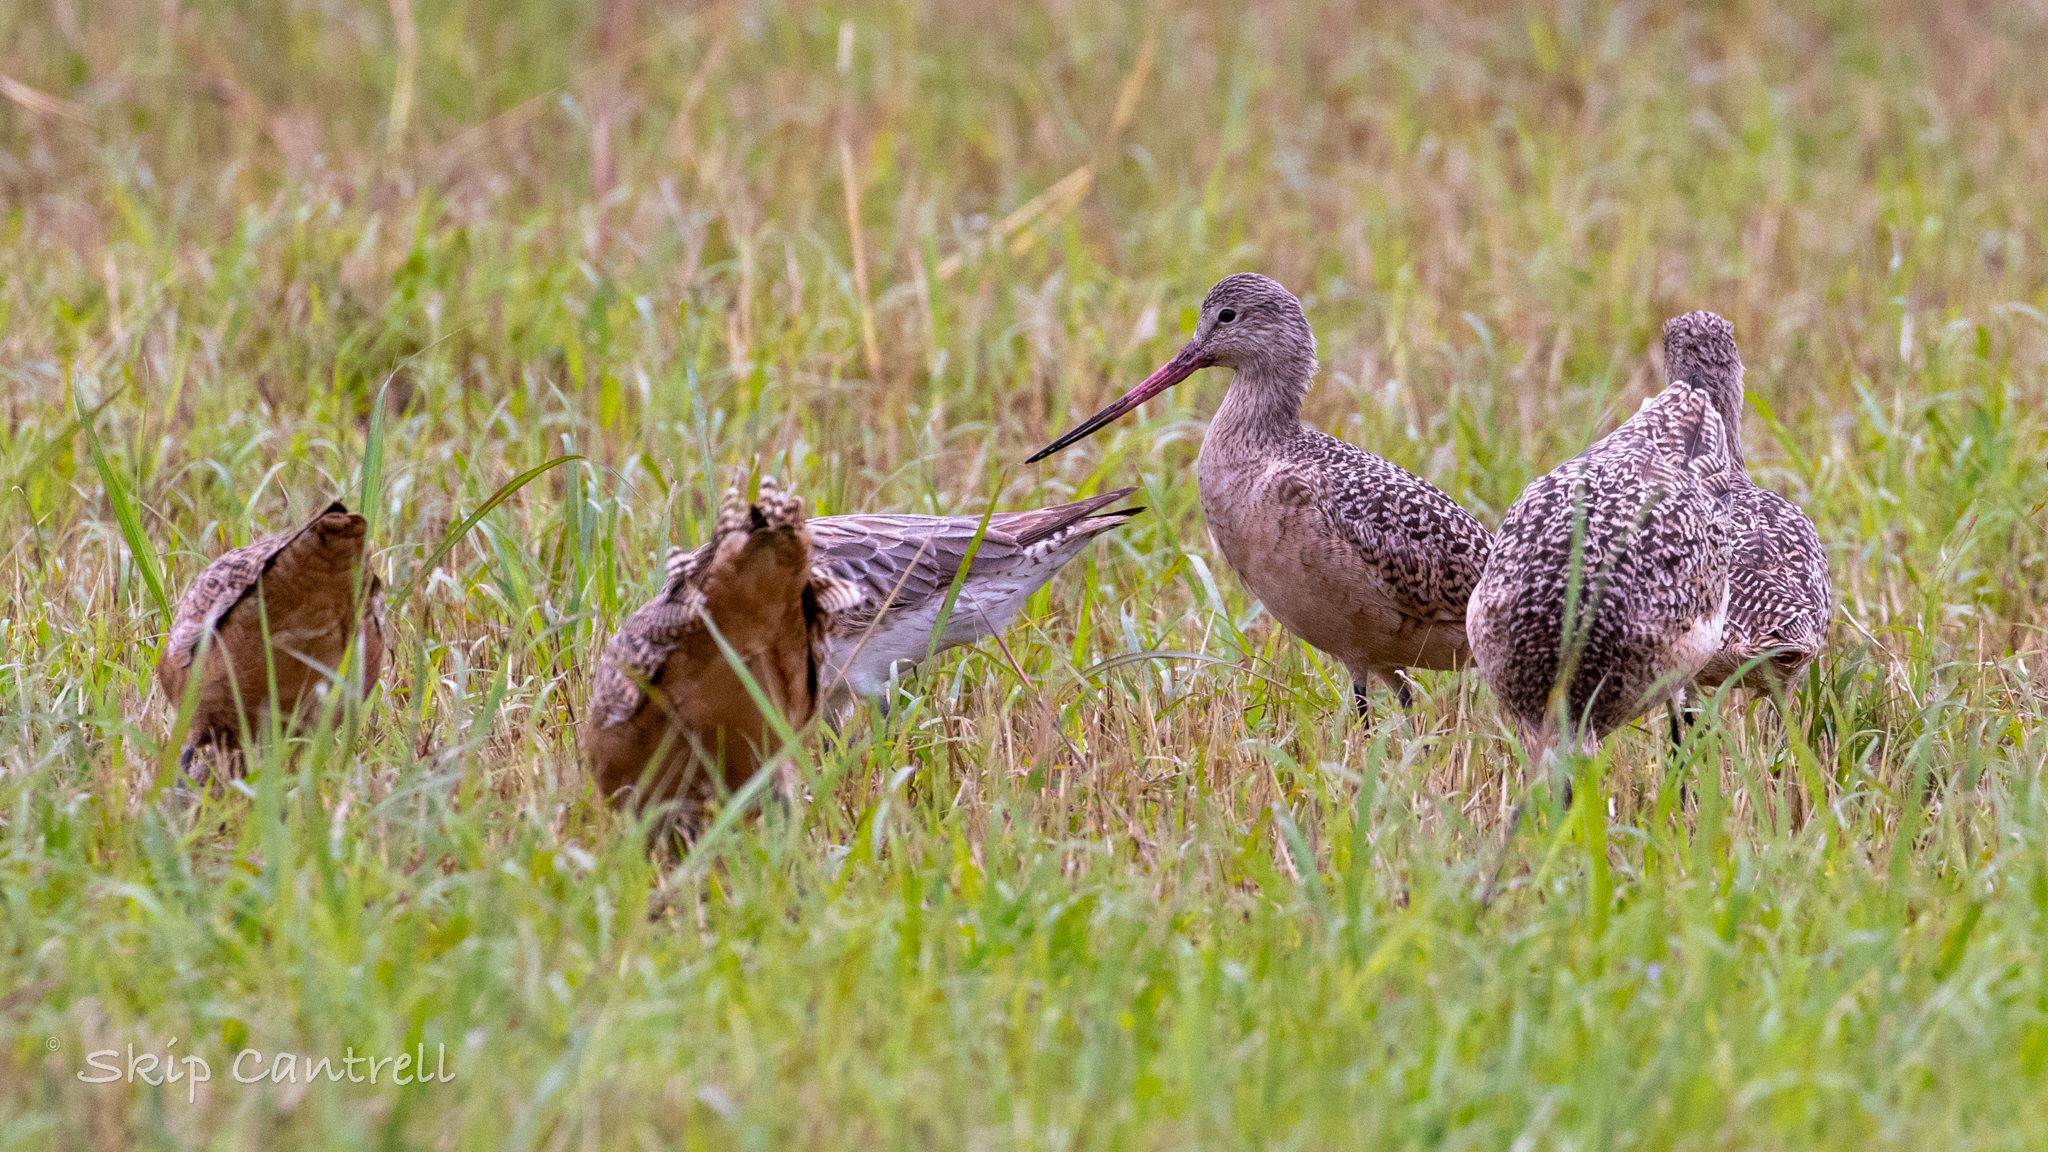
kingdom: Animalia
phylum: Chordata
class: Aves
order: Charadriiformes
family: Scolopacidae
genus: Limosa
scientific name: Limosa fedoa
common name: Marbled godwit
